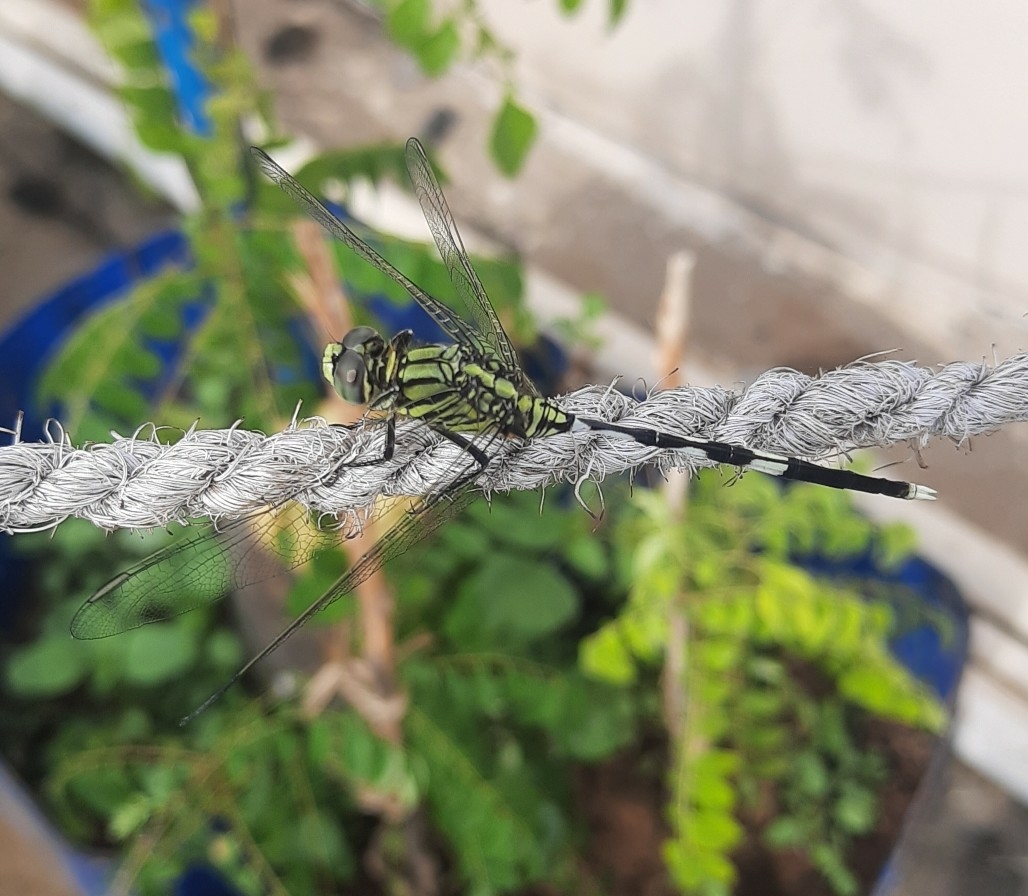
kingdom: Animalia
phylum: Arthropoda
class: Insecta
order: Odonata
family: Libellulidae
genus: Orthetrum
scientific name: Orthetrum sabina
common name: Slender skimmer
